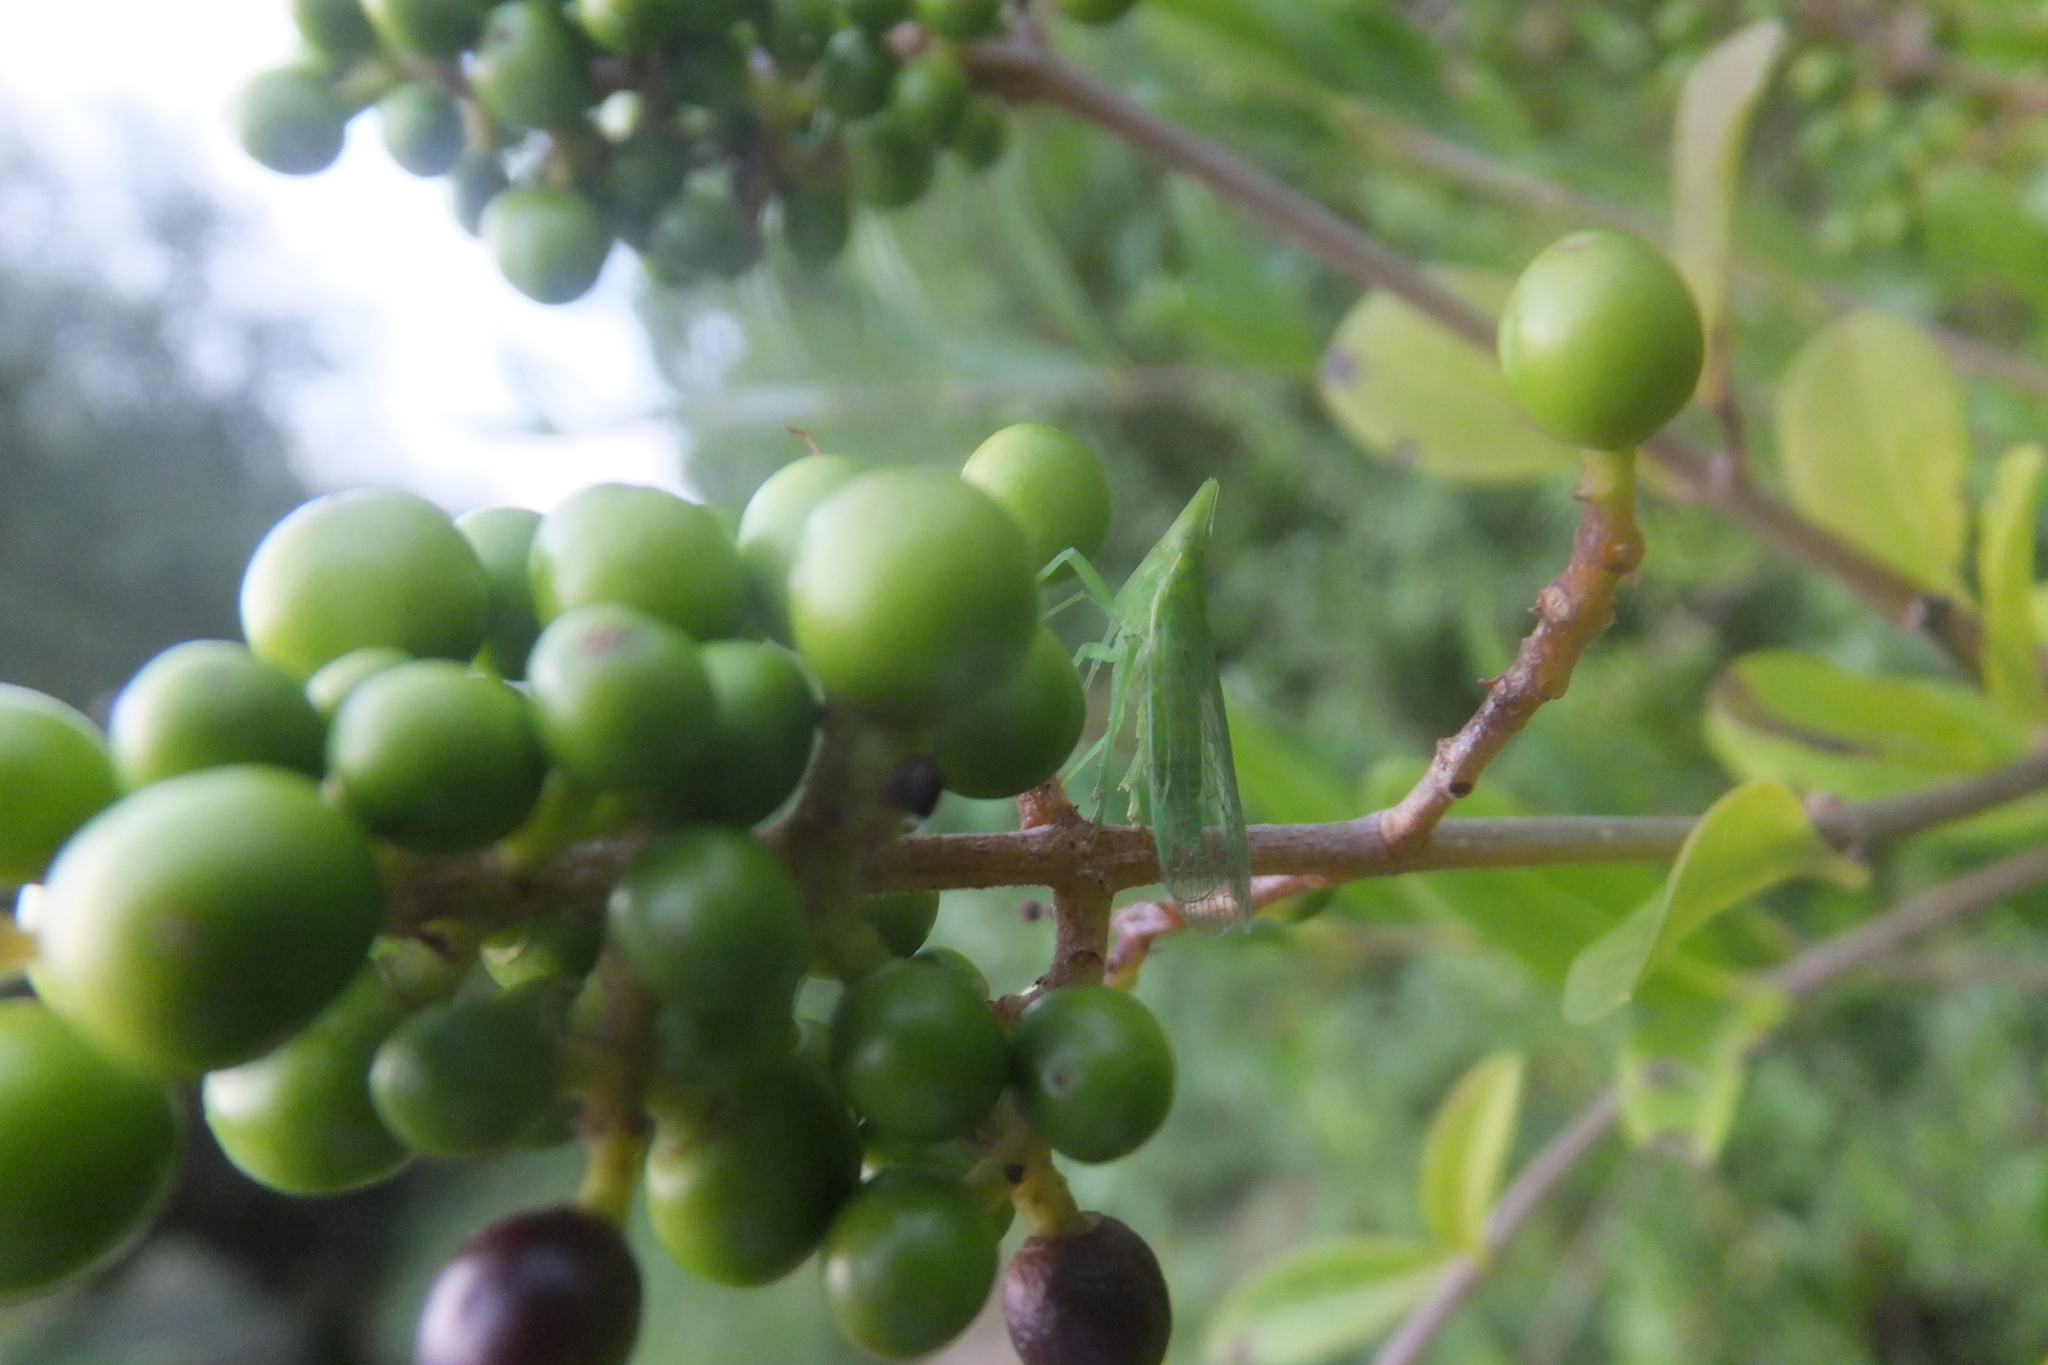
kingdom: Animalia
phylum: Arthropoda
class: Insecta
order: Hemiptera
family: Dictyopharidae
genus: Dictyophara
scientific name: Dictyophara europaea
